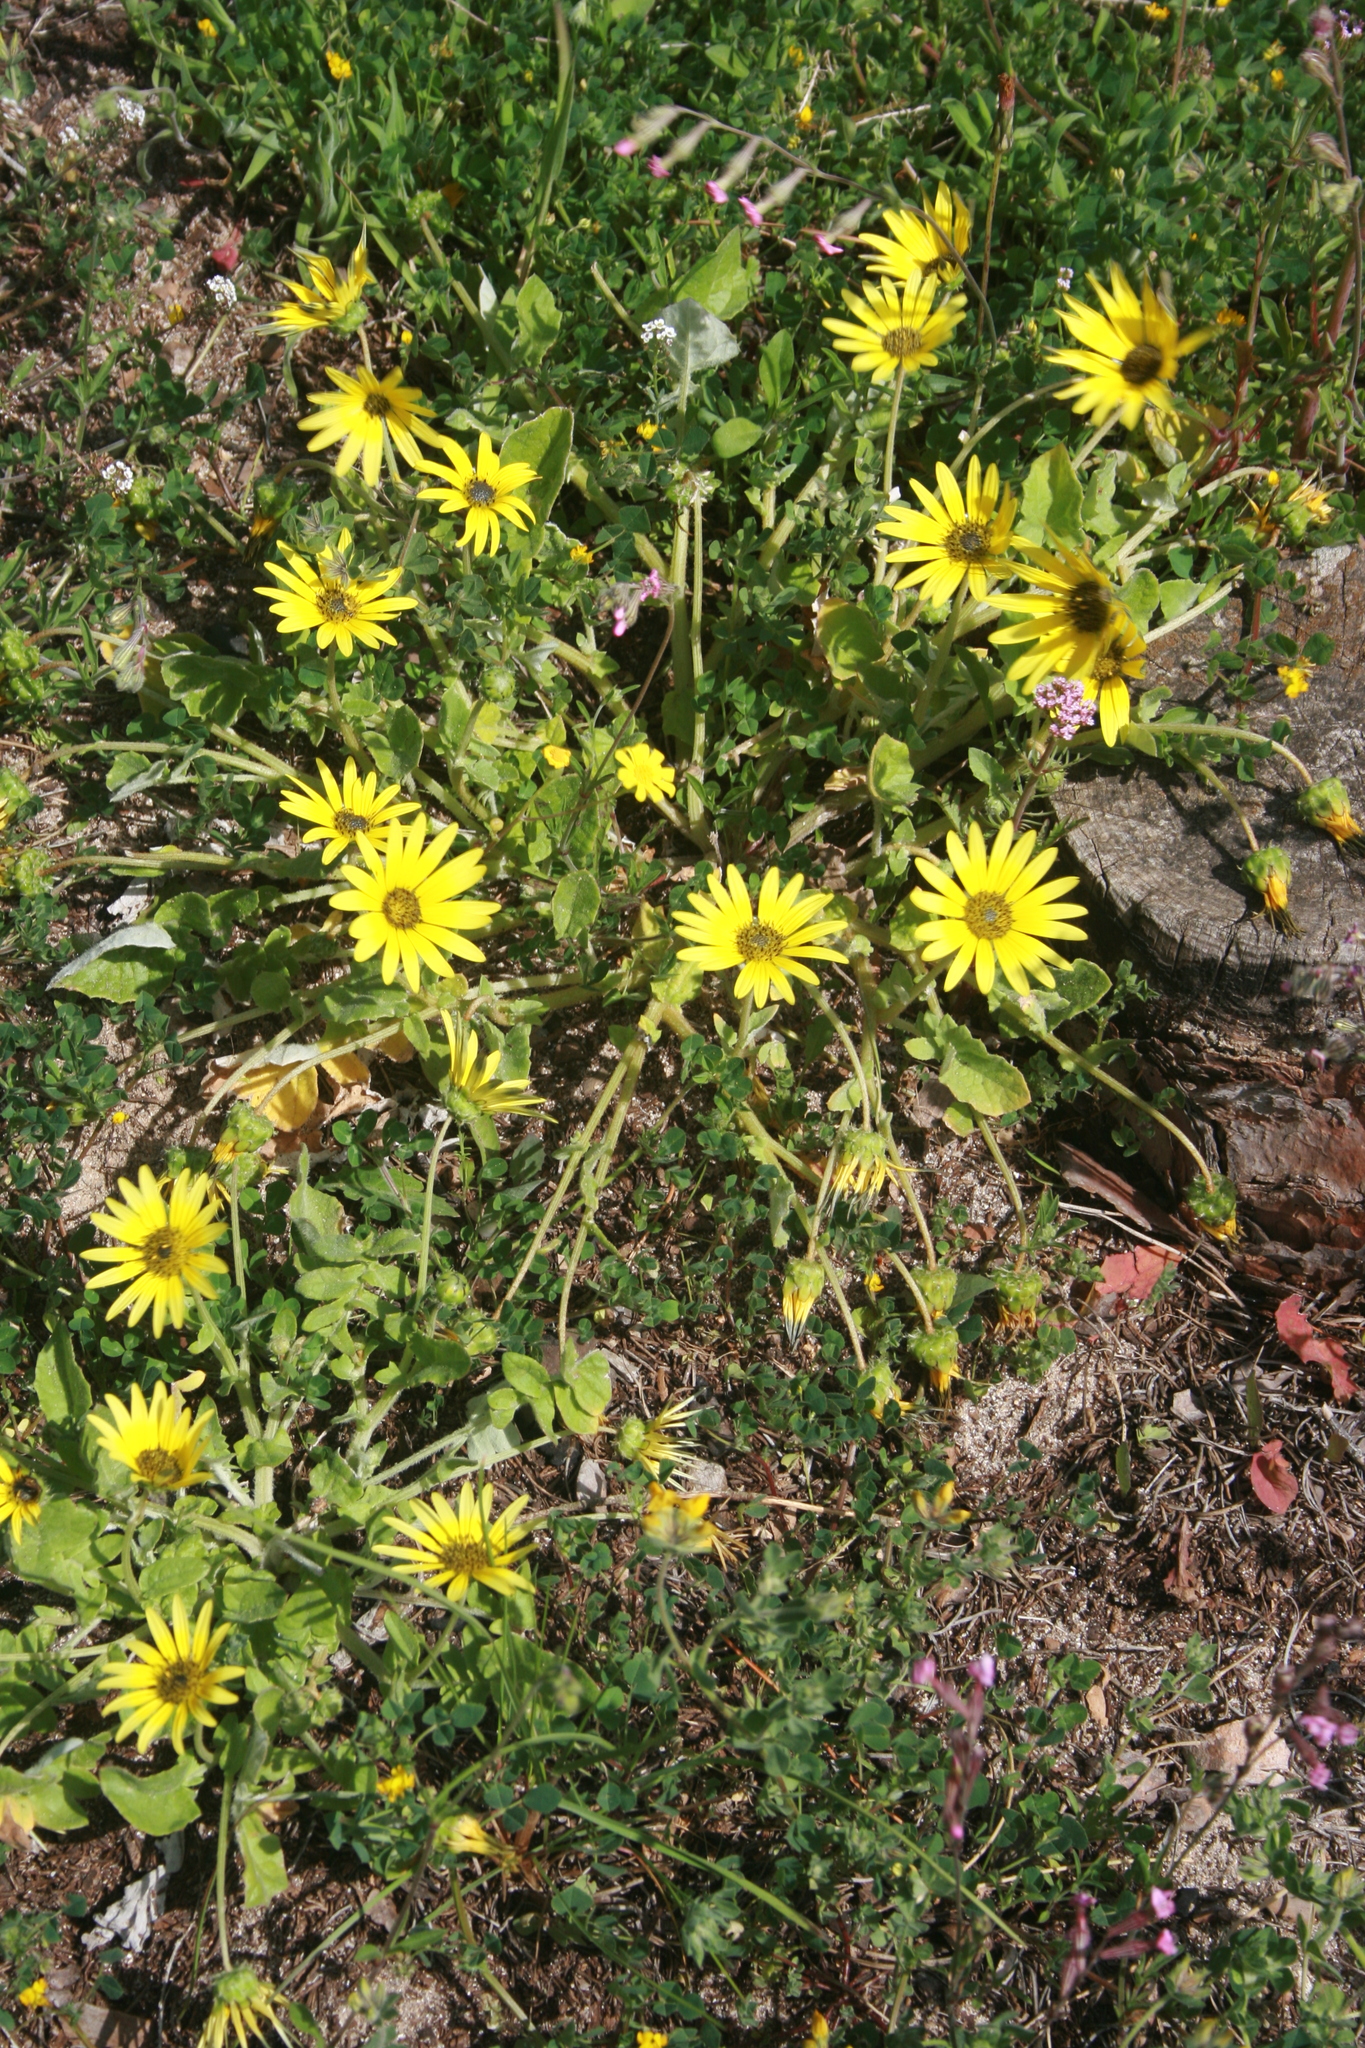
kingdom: Plantae
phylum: Tracheophyta
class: Magnoliopsida
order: Asterales
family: Asteraceae
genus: Arctotheca
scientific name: Arctotheca calendula
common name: Capeweed
